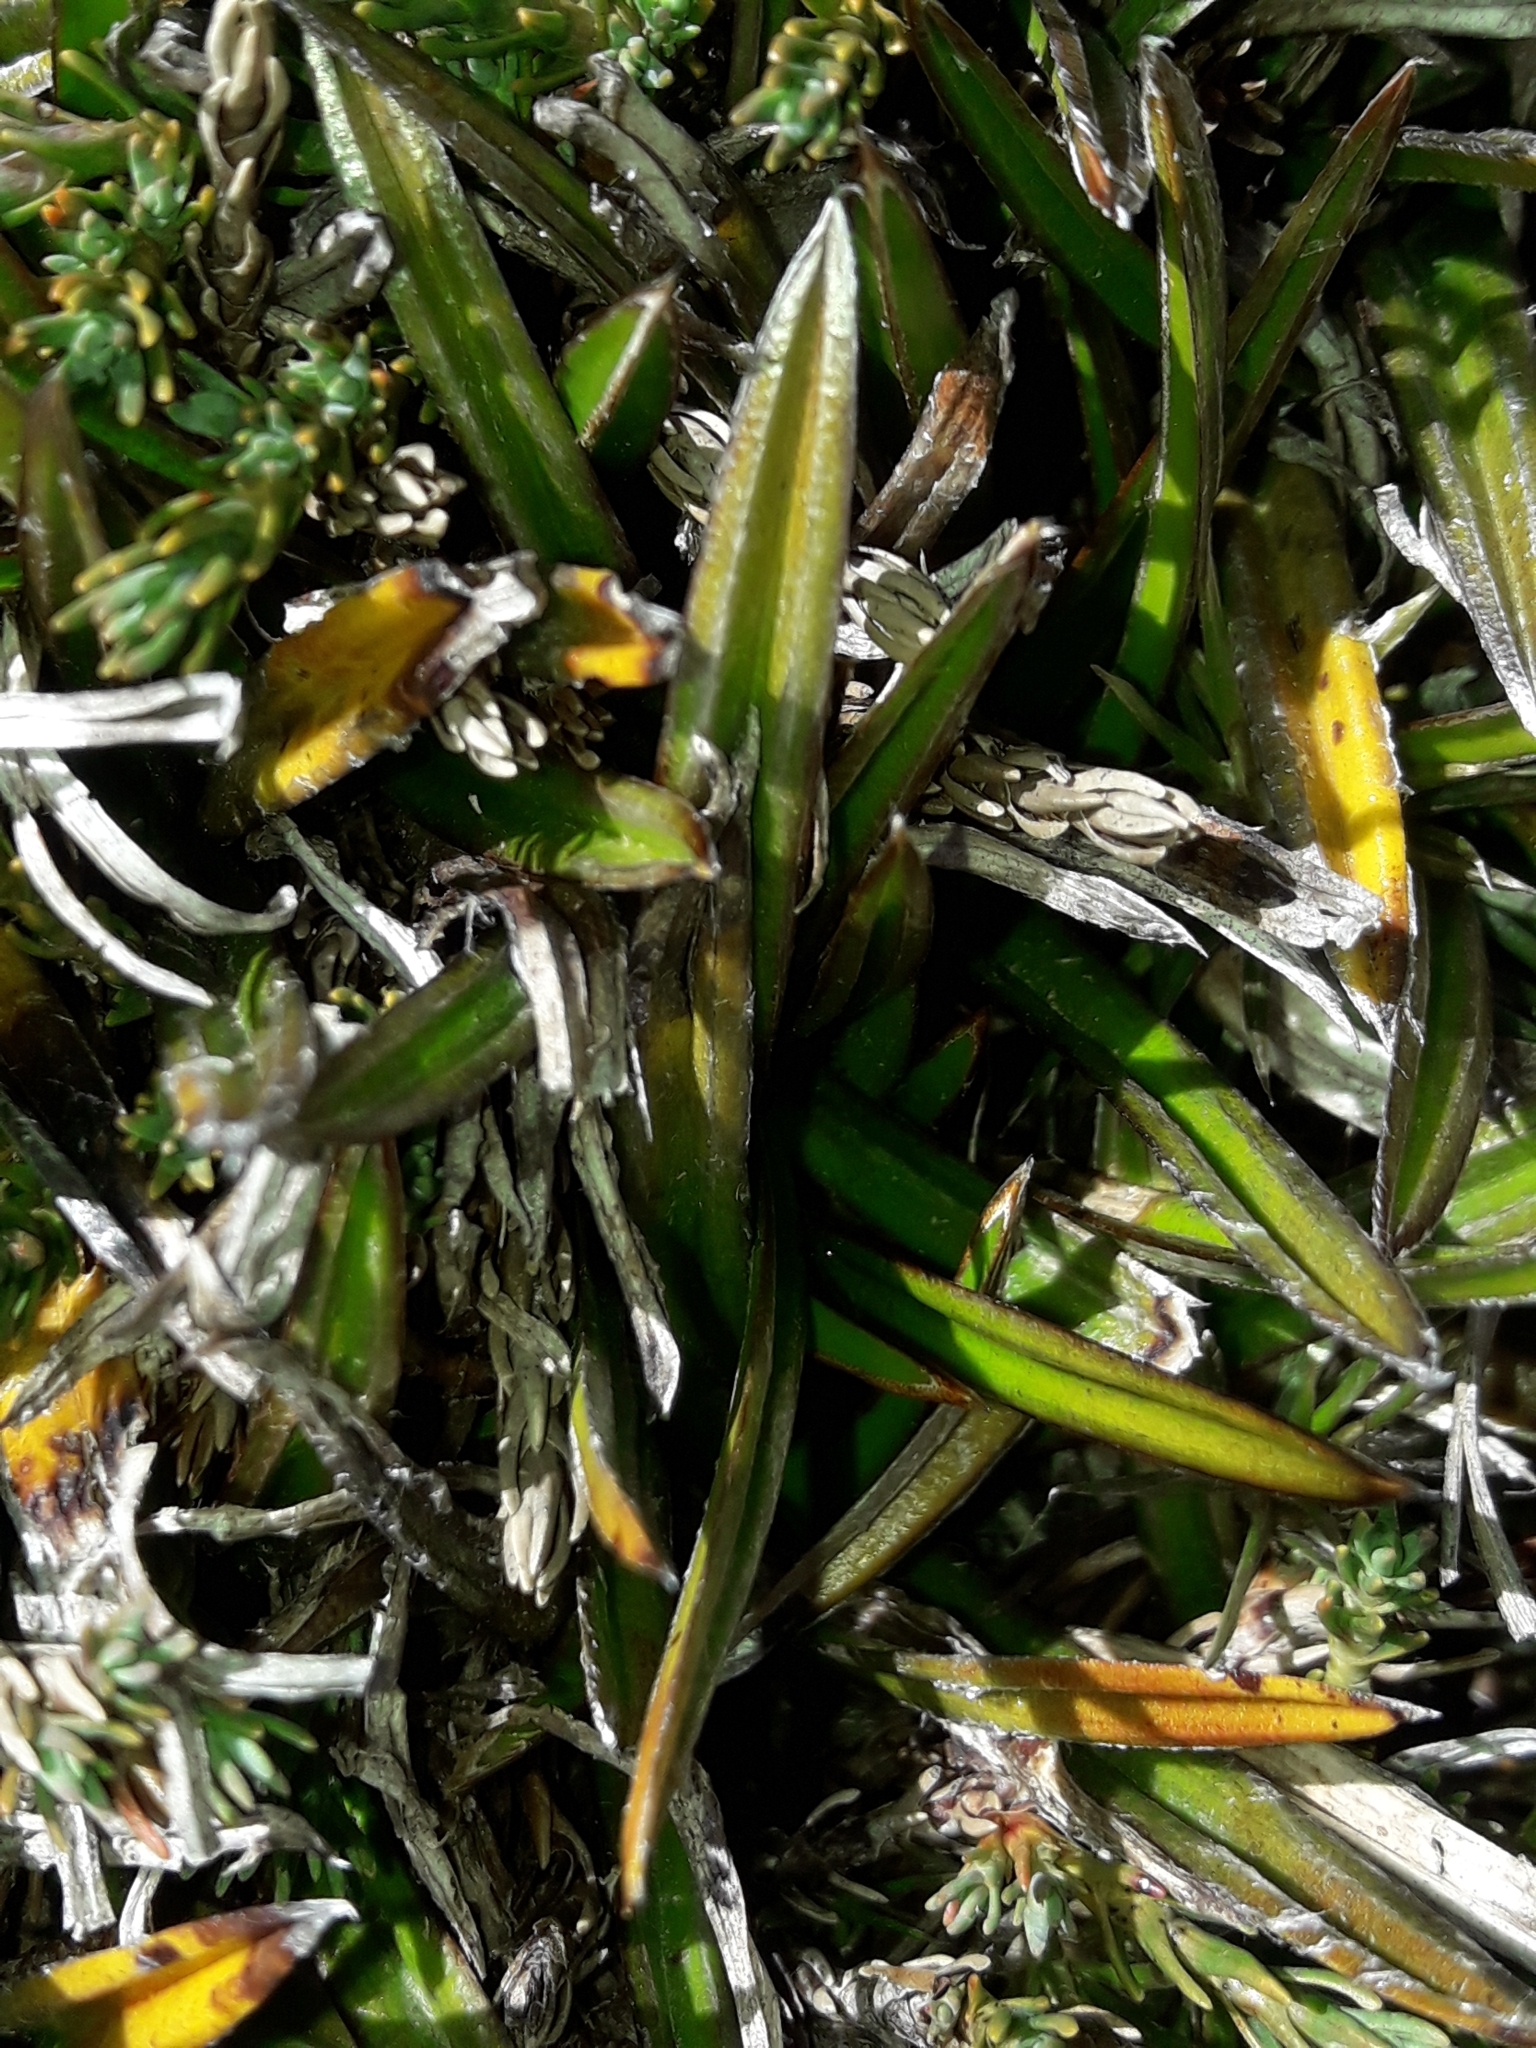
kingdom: Plantae
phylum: Tracheophyta
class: Liliopsida
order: Asparagales
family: Asteliaceae
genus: Astelia
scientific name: Astelia linearis
